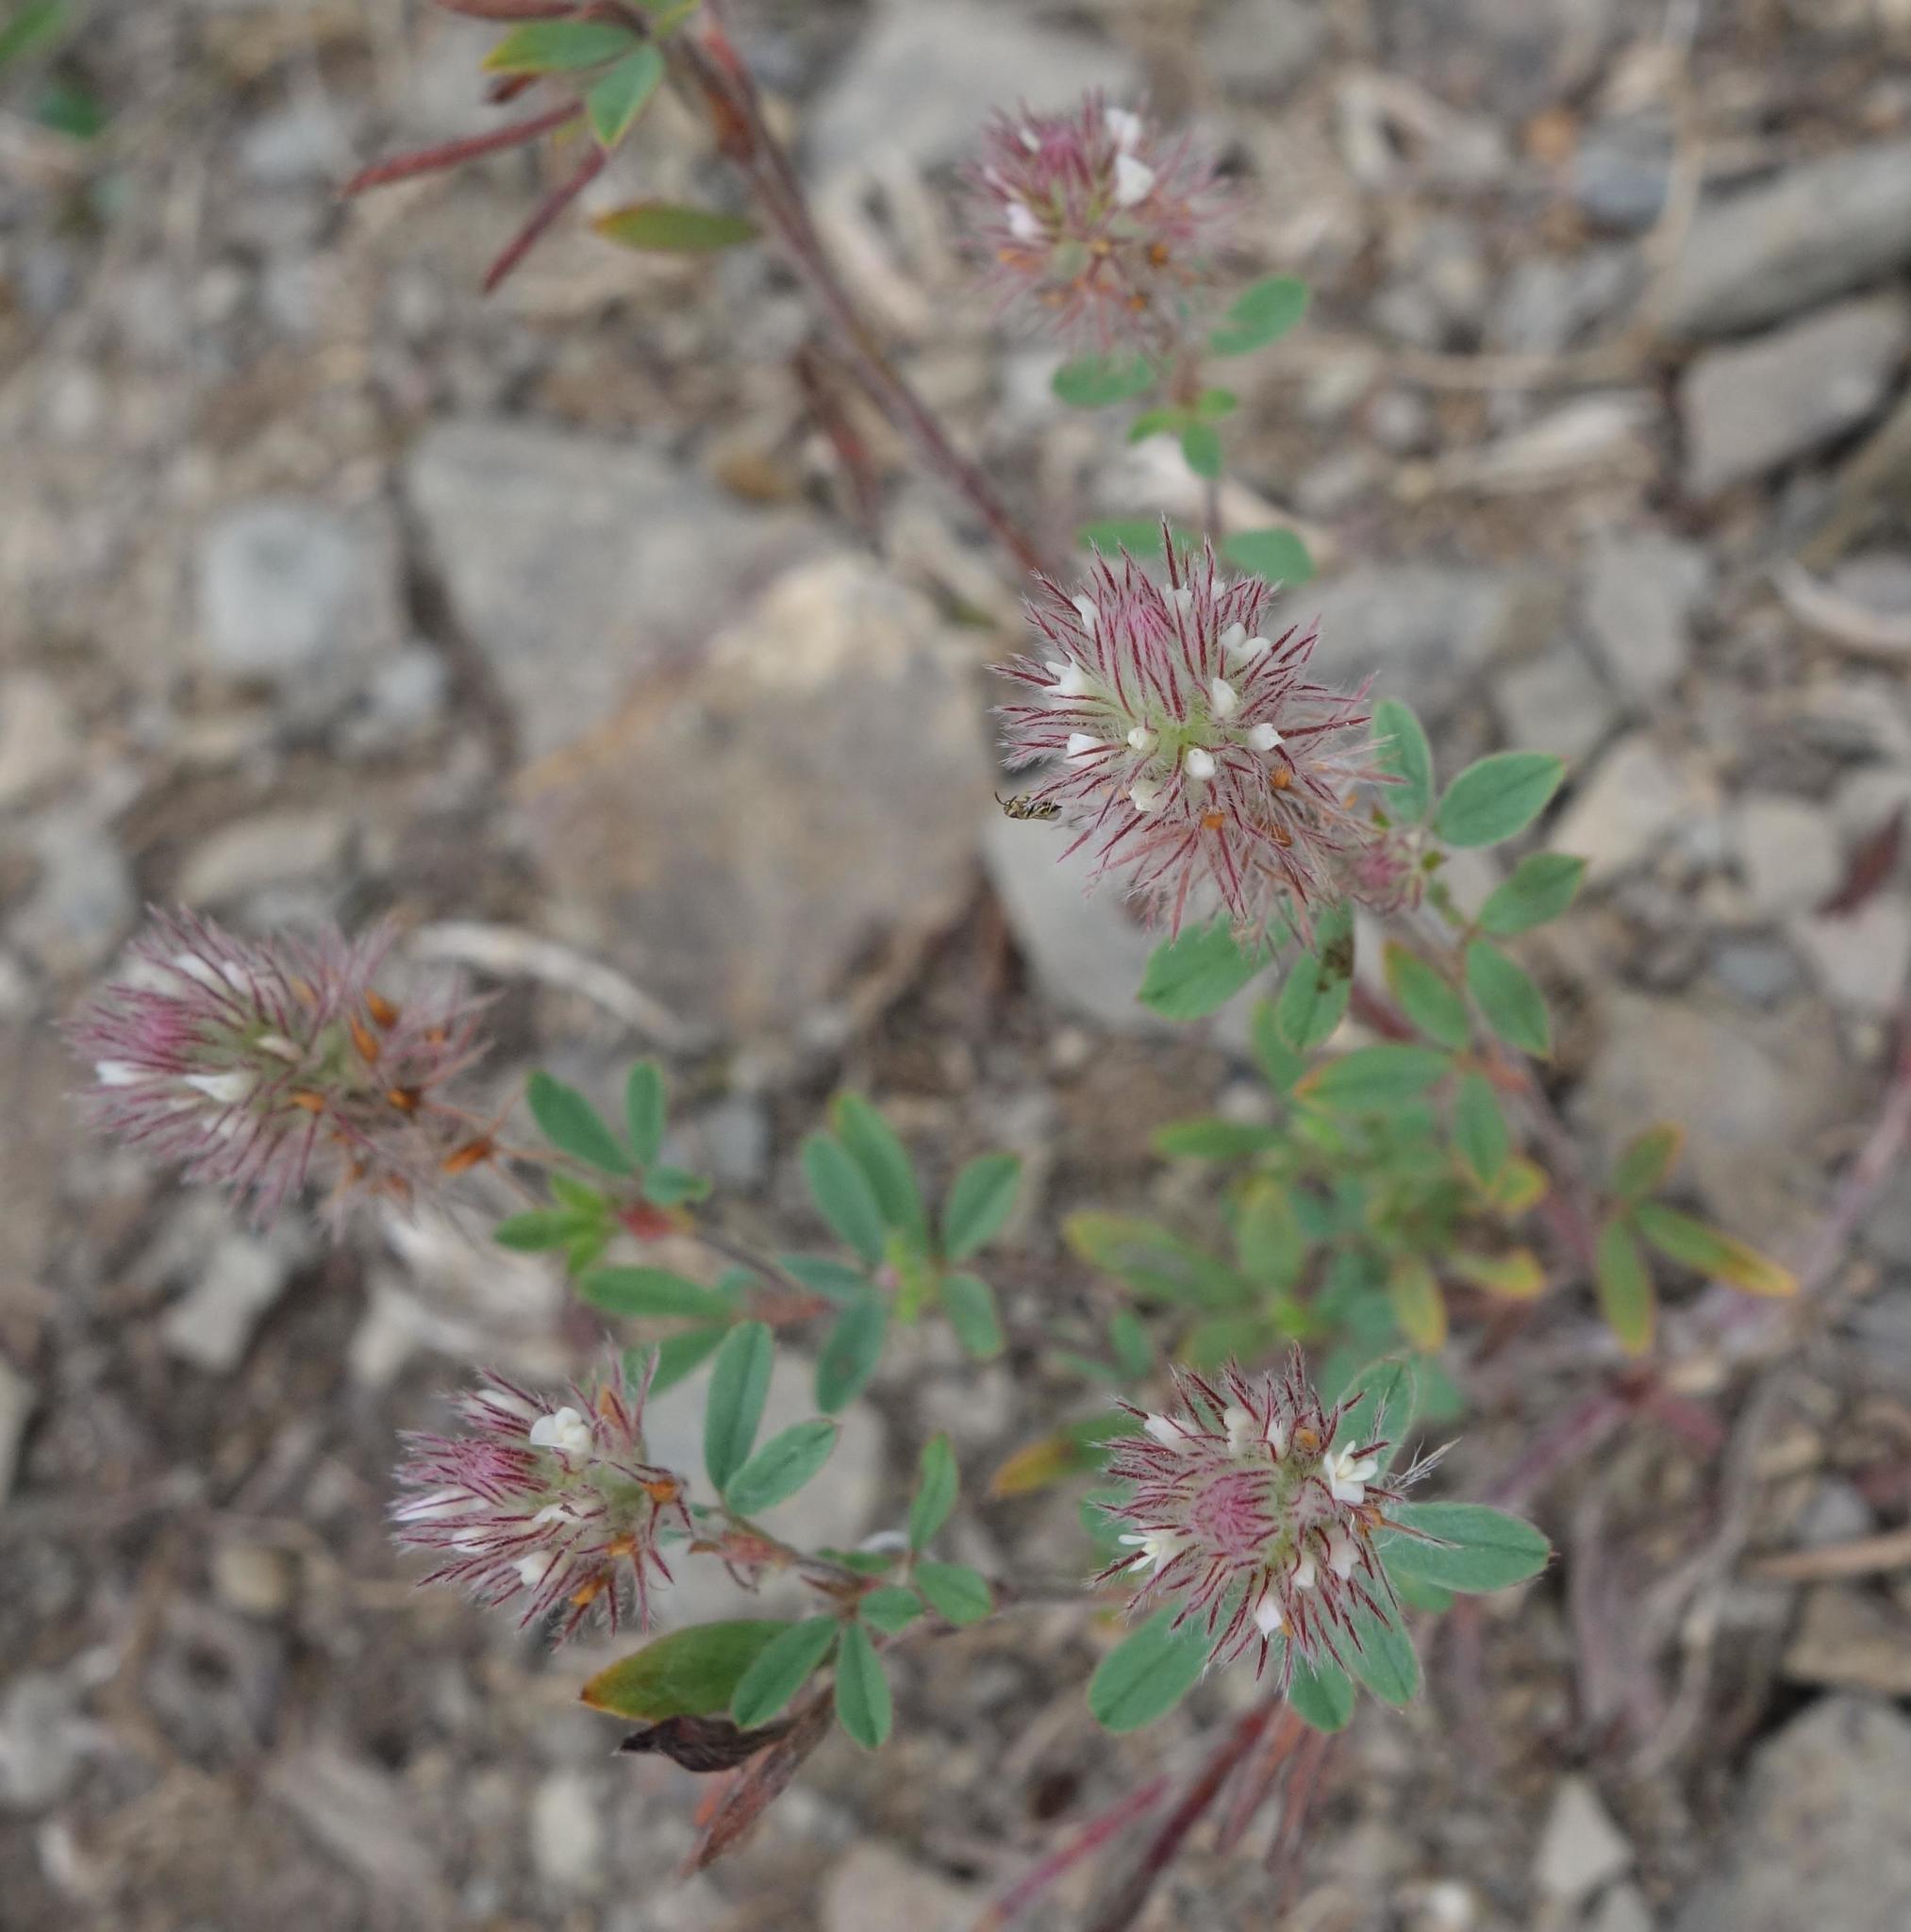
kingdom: Plantae
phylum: Tracheophyta
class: Magnoliopsida
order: Fabales
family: Fabaceae
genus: Trifolium
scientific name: Trifolium arvense
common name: Hare's-foot clover
